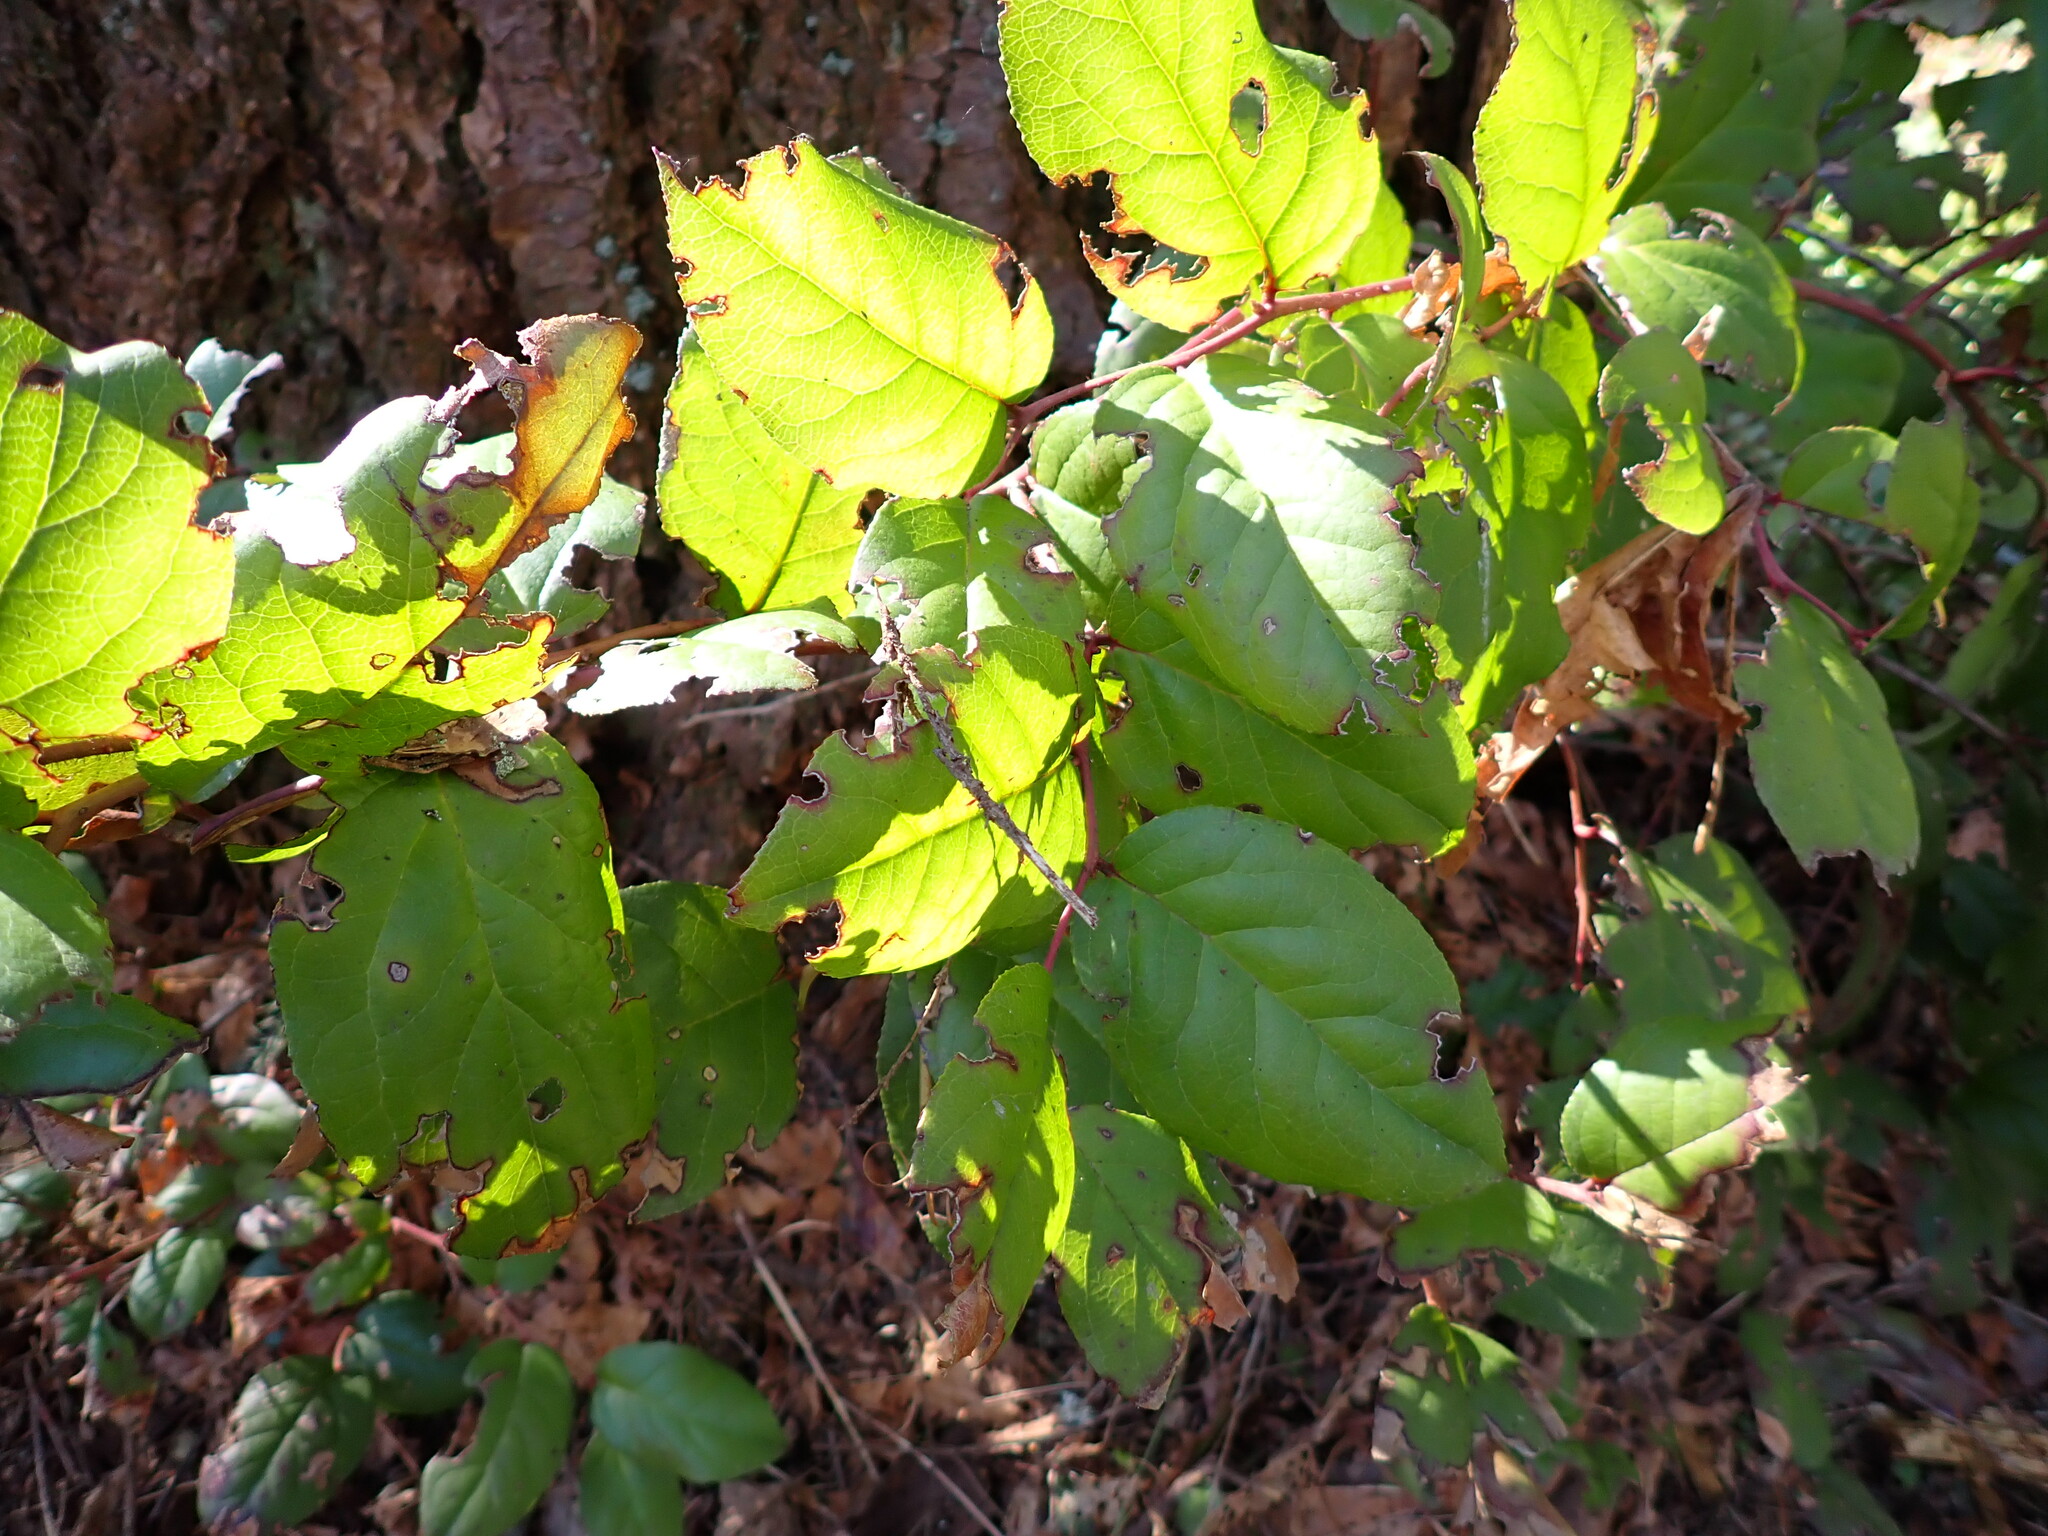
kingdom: Plantae
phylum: Tracheophyta
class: Magnoliopsida
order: Ericales
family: Ericaceae
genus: Gaultheria
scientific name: Gaultheria shallon
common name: Shallon
